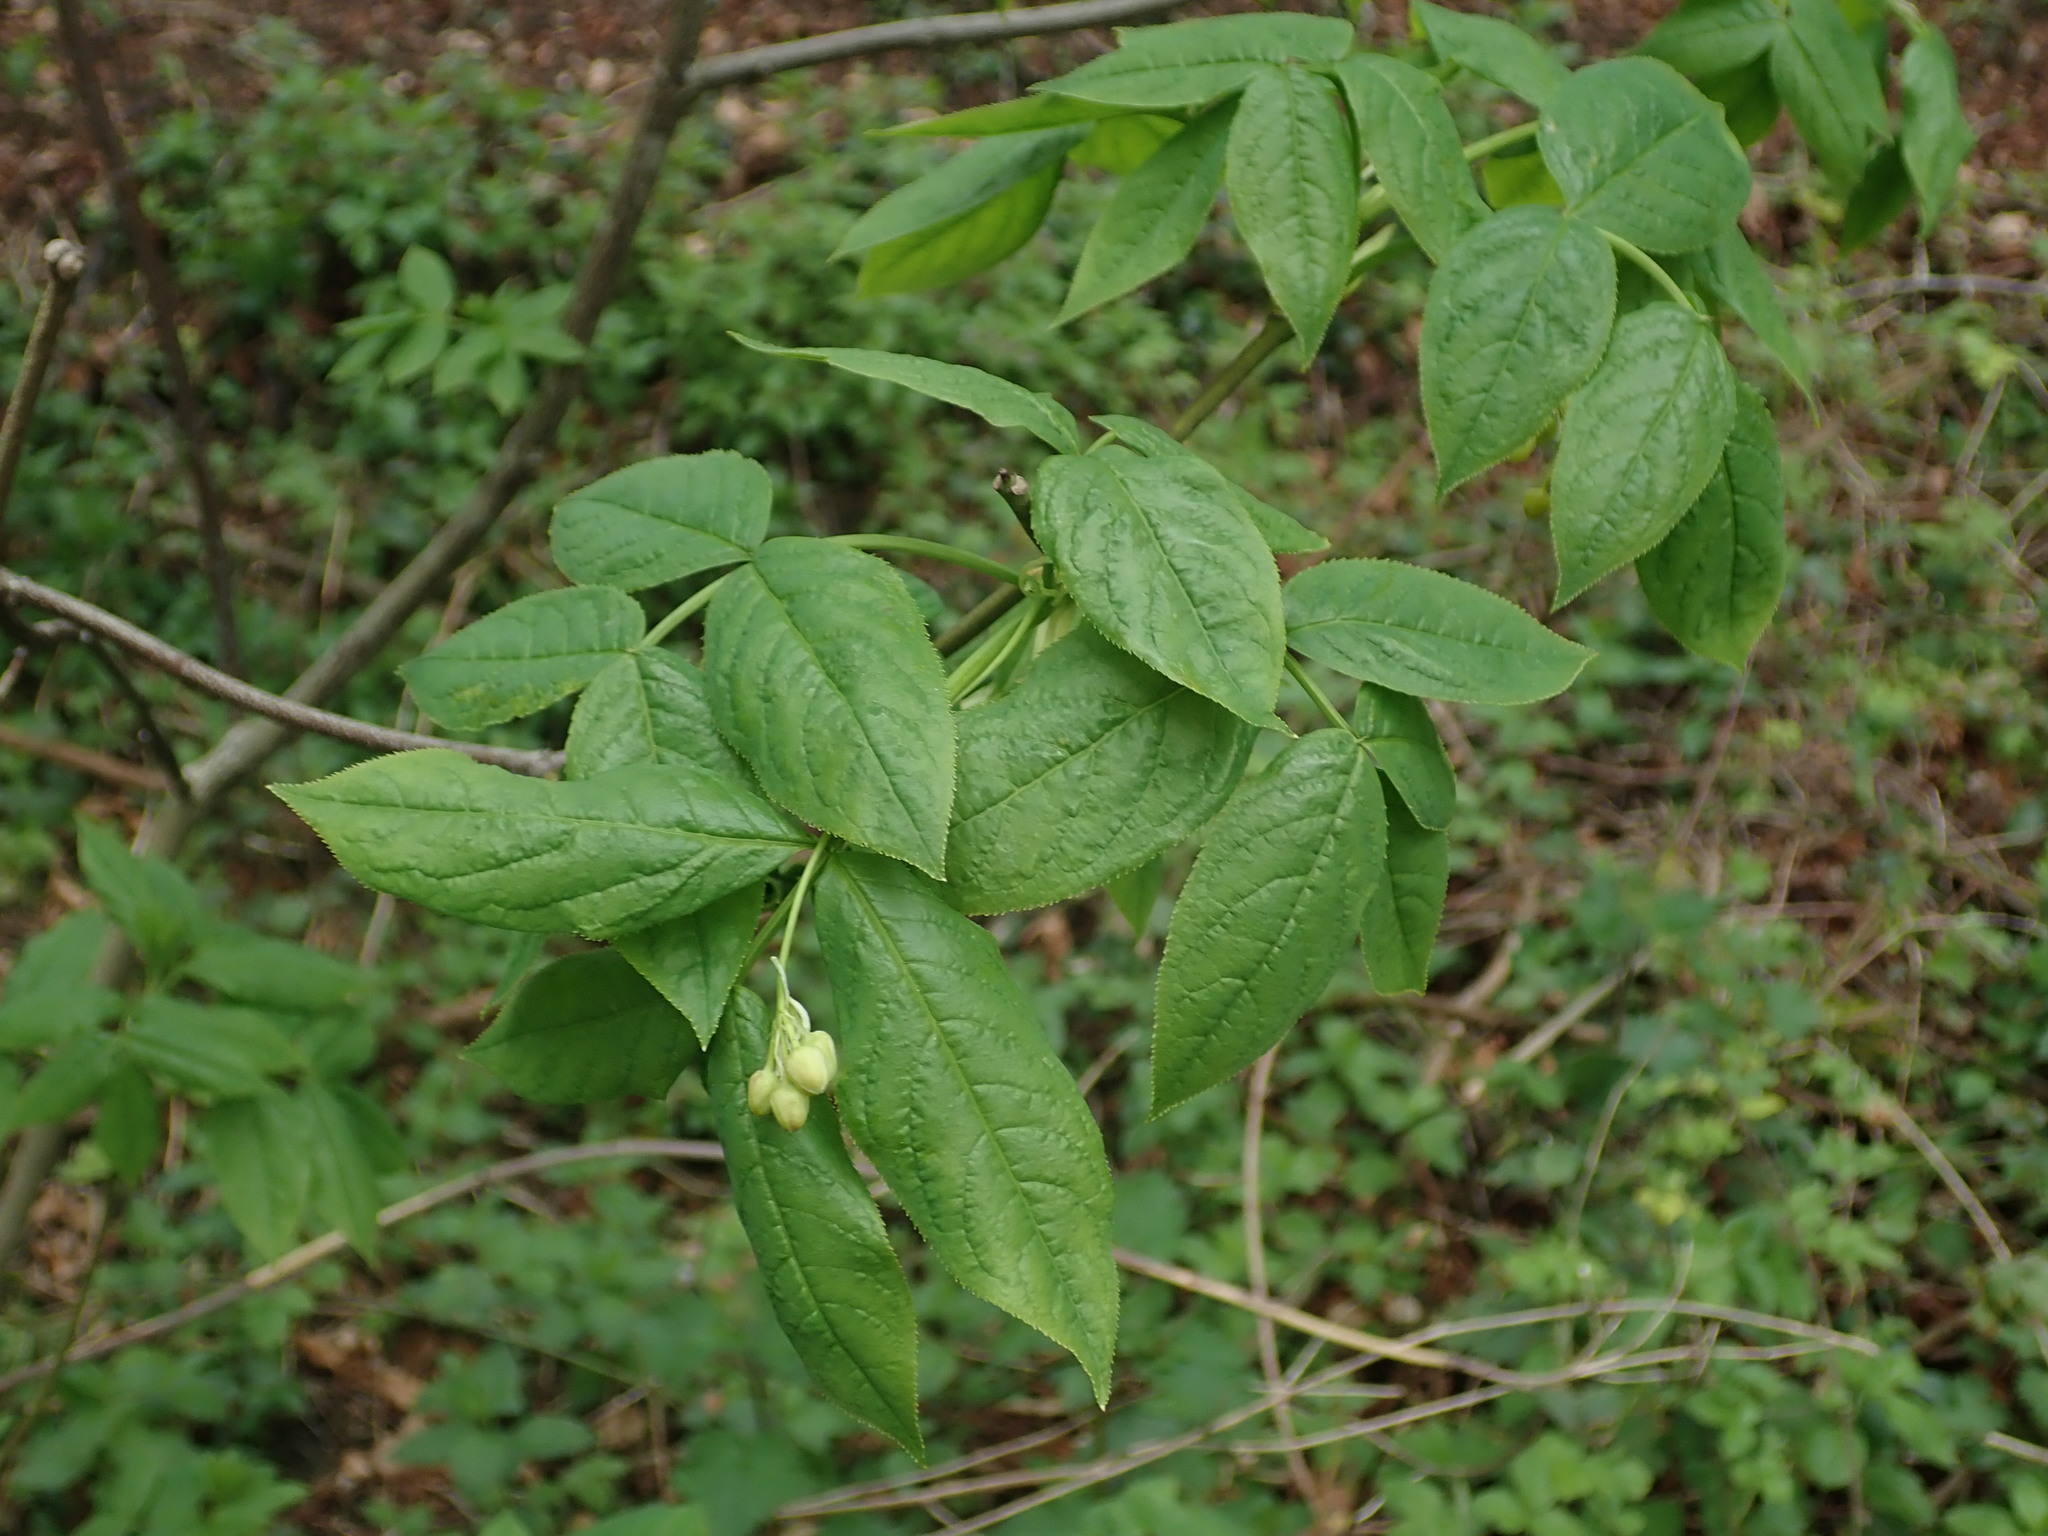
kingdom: Plantae
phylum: Tracheophyta
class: Magnoliopsida
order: Crossosomatales
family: Staphyleaceae
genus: Staphylea
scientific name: Staphylea pinnata
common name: Bladdernut
